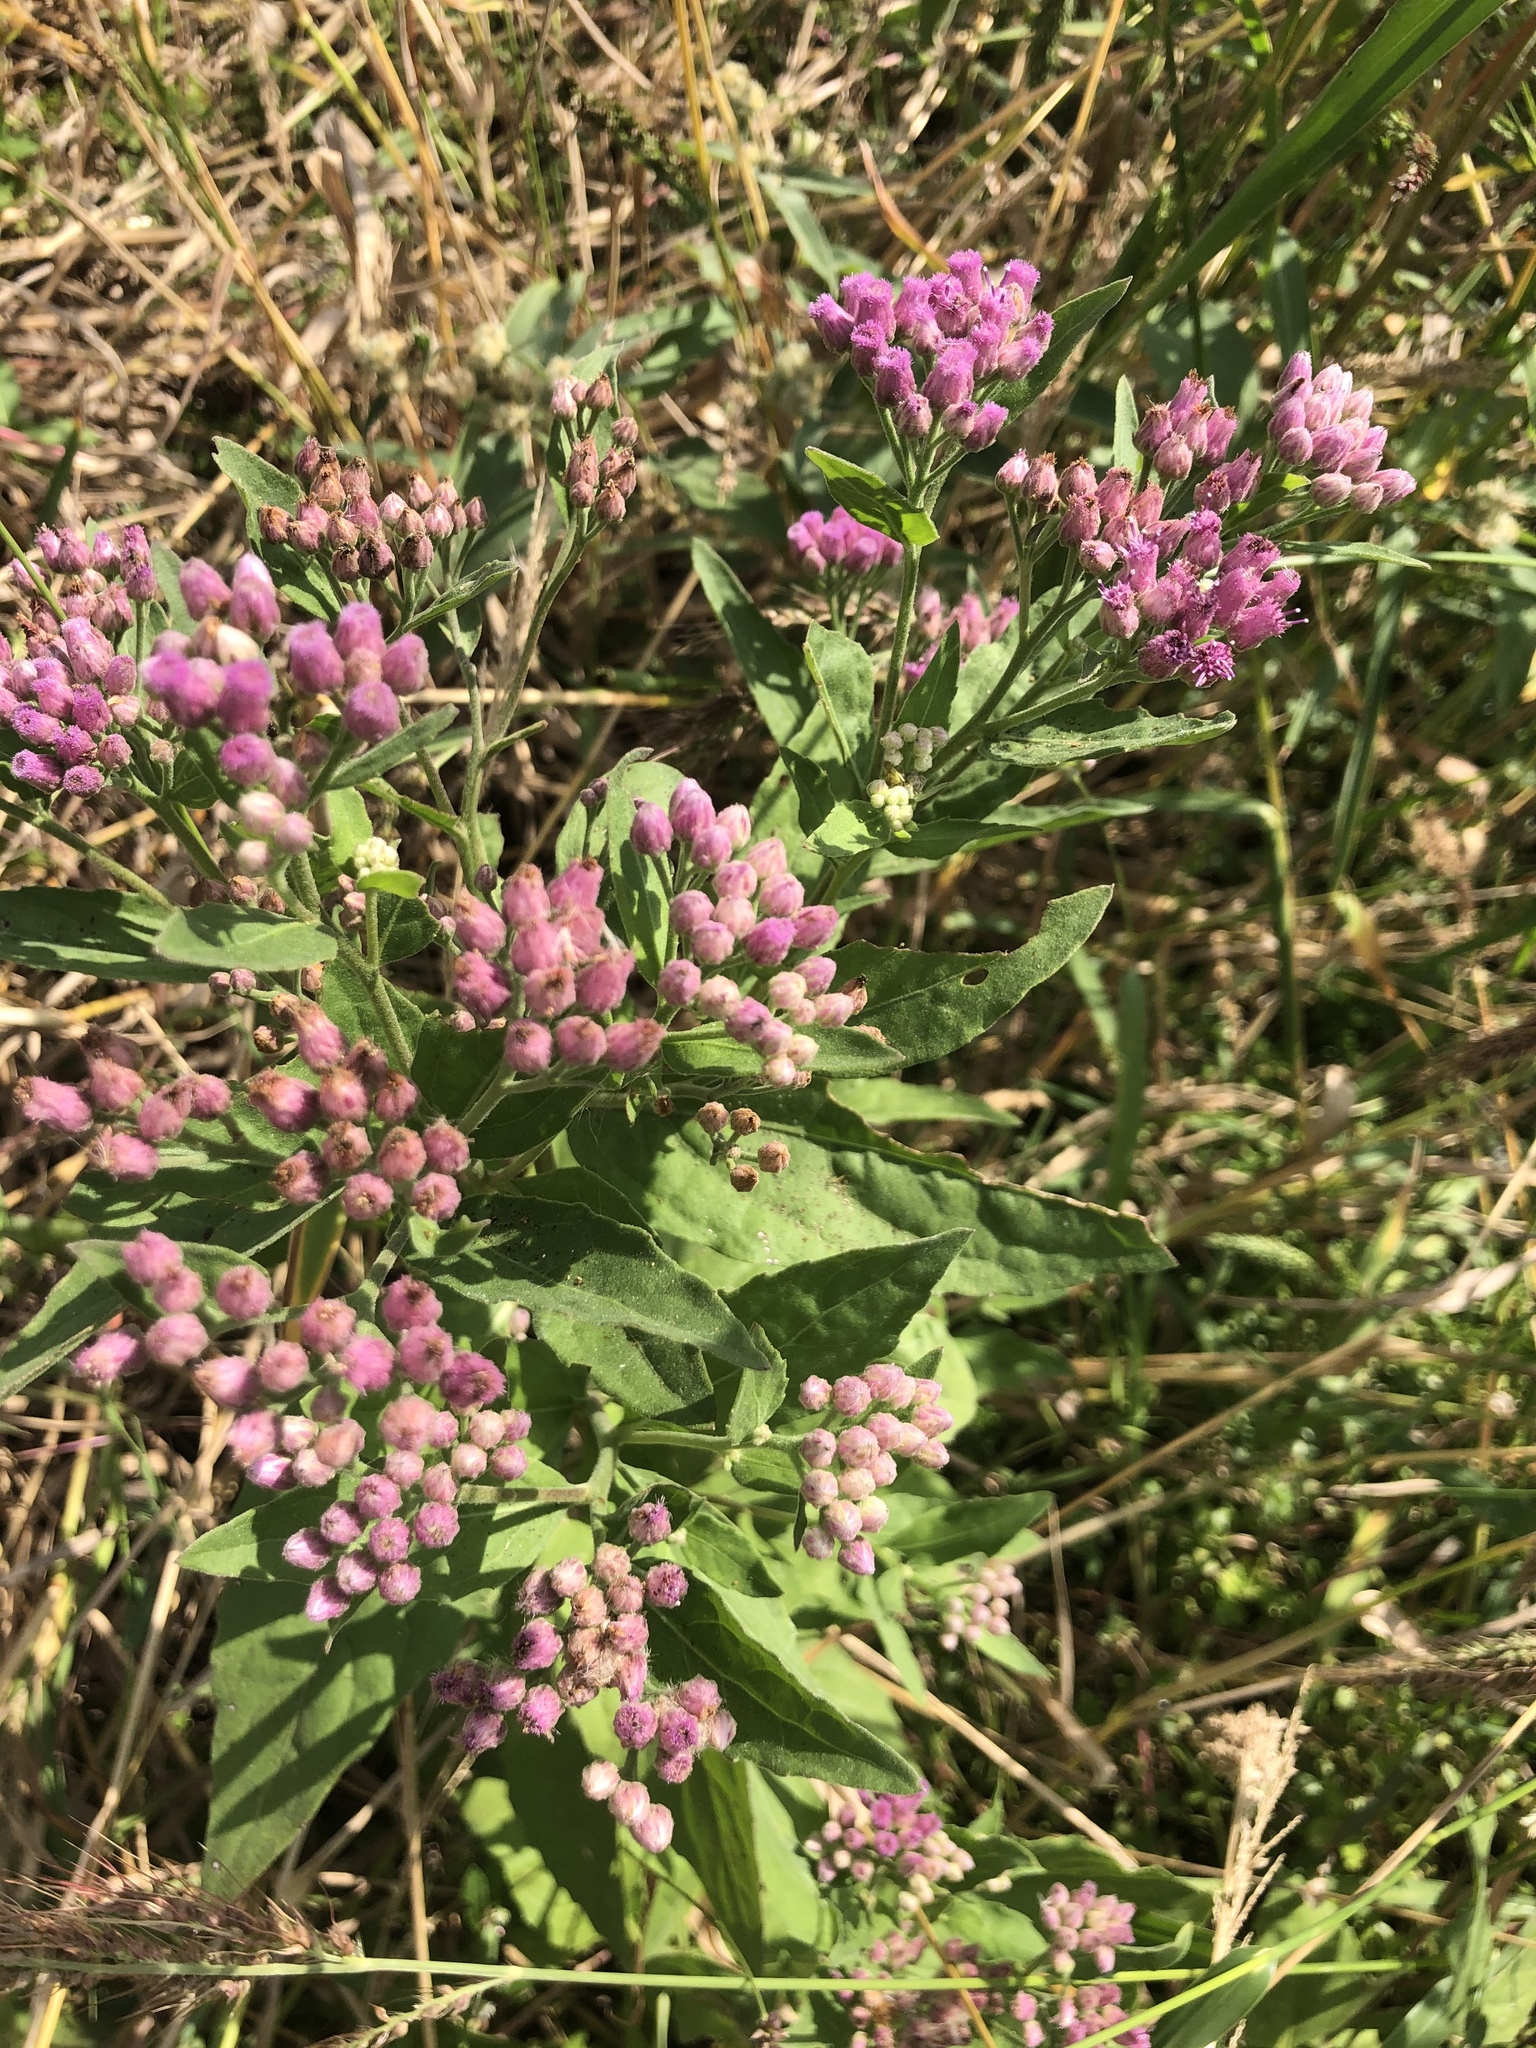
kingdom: Plantae
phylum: Tracheophyta
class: Magnoliopsida
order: Asterales
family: Asteraceae
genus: Pluchea
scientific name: Pluchea odorata
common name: Saltmarsh fleabane
